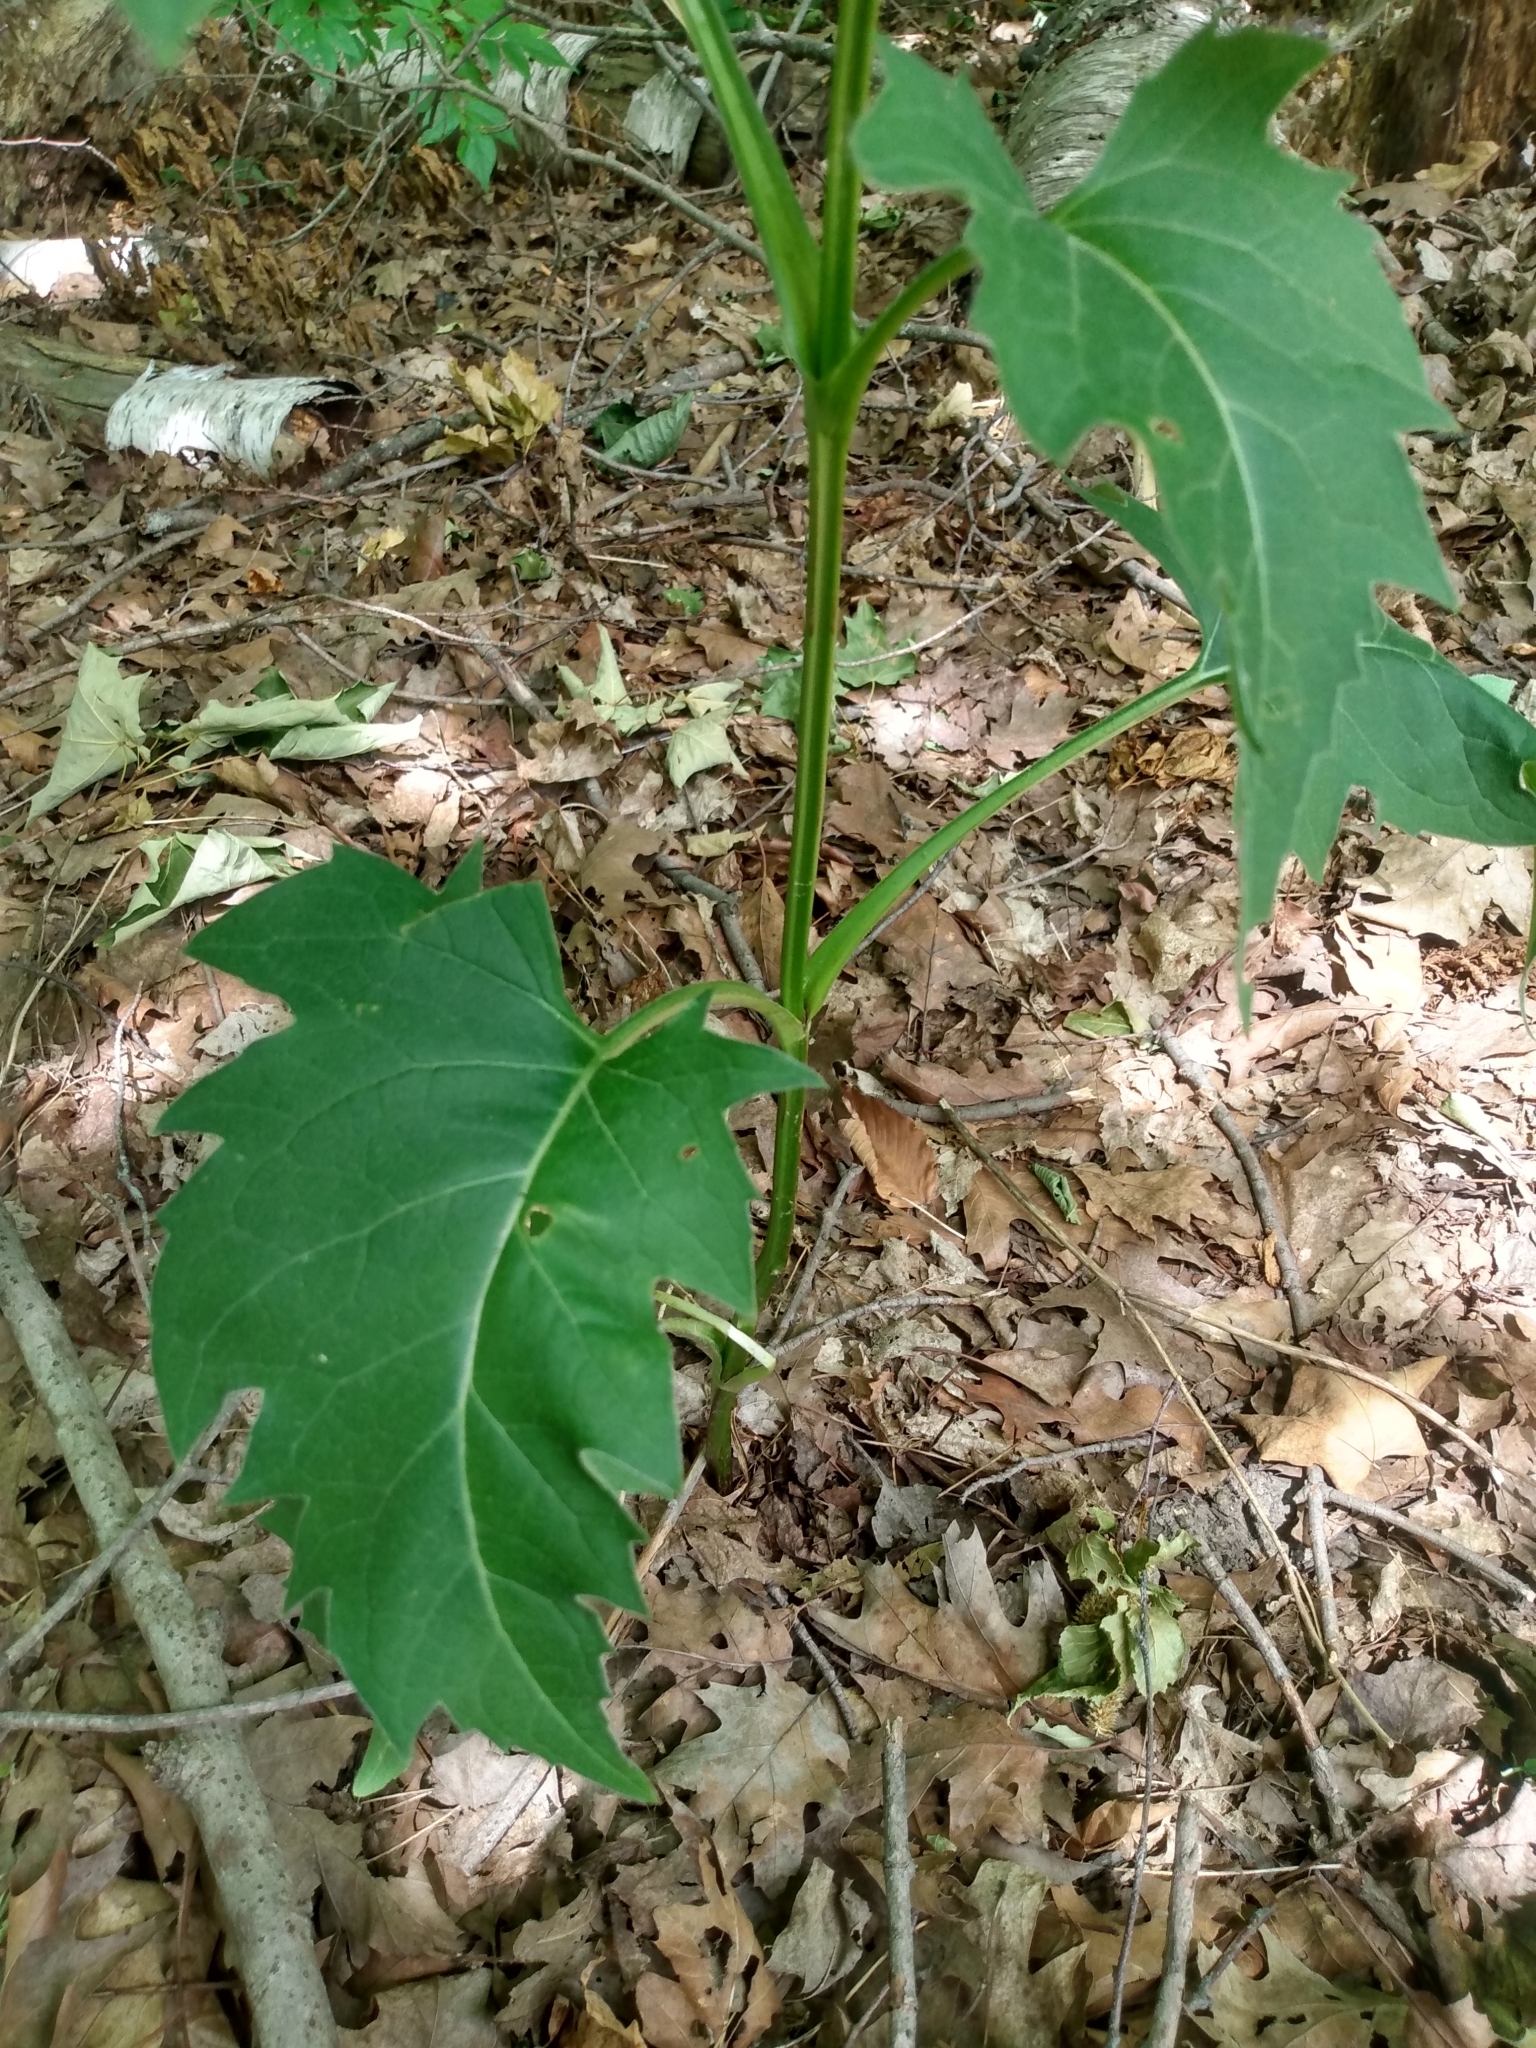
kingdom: Plantae
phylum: Tracheophyta
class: Magnoliopsida
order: Asterales
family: Asteraceae
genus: Silphium
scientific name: Silphium perfoliatum
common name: Cup-plant
